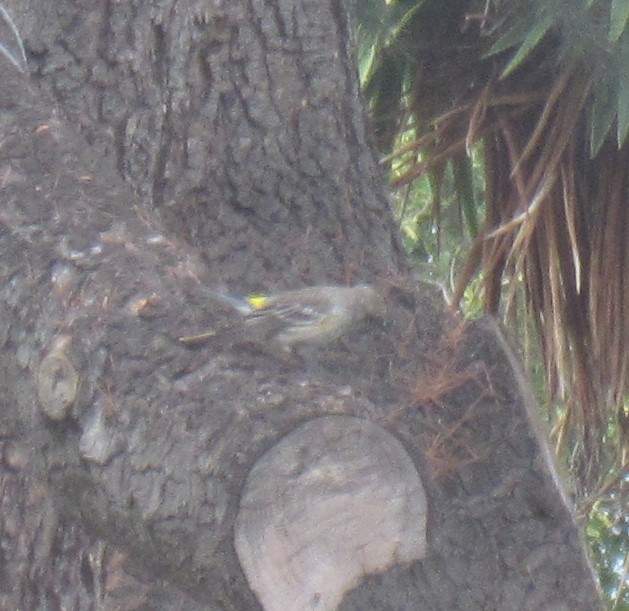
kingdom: Animalia
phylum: Chordata
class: Aves
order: Passeriformes
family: Parulidae
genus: Setophaga
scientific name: Setophaga coronata
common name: Myrtle warbler
